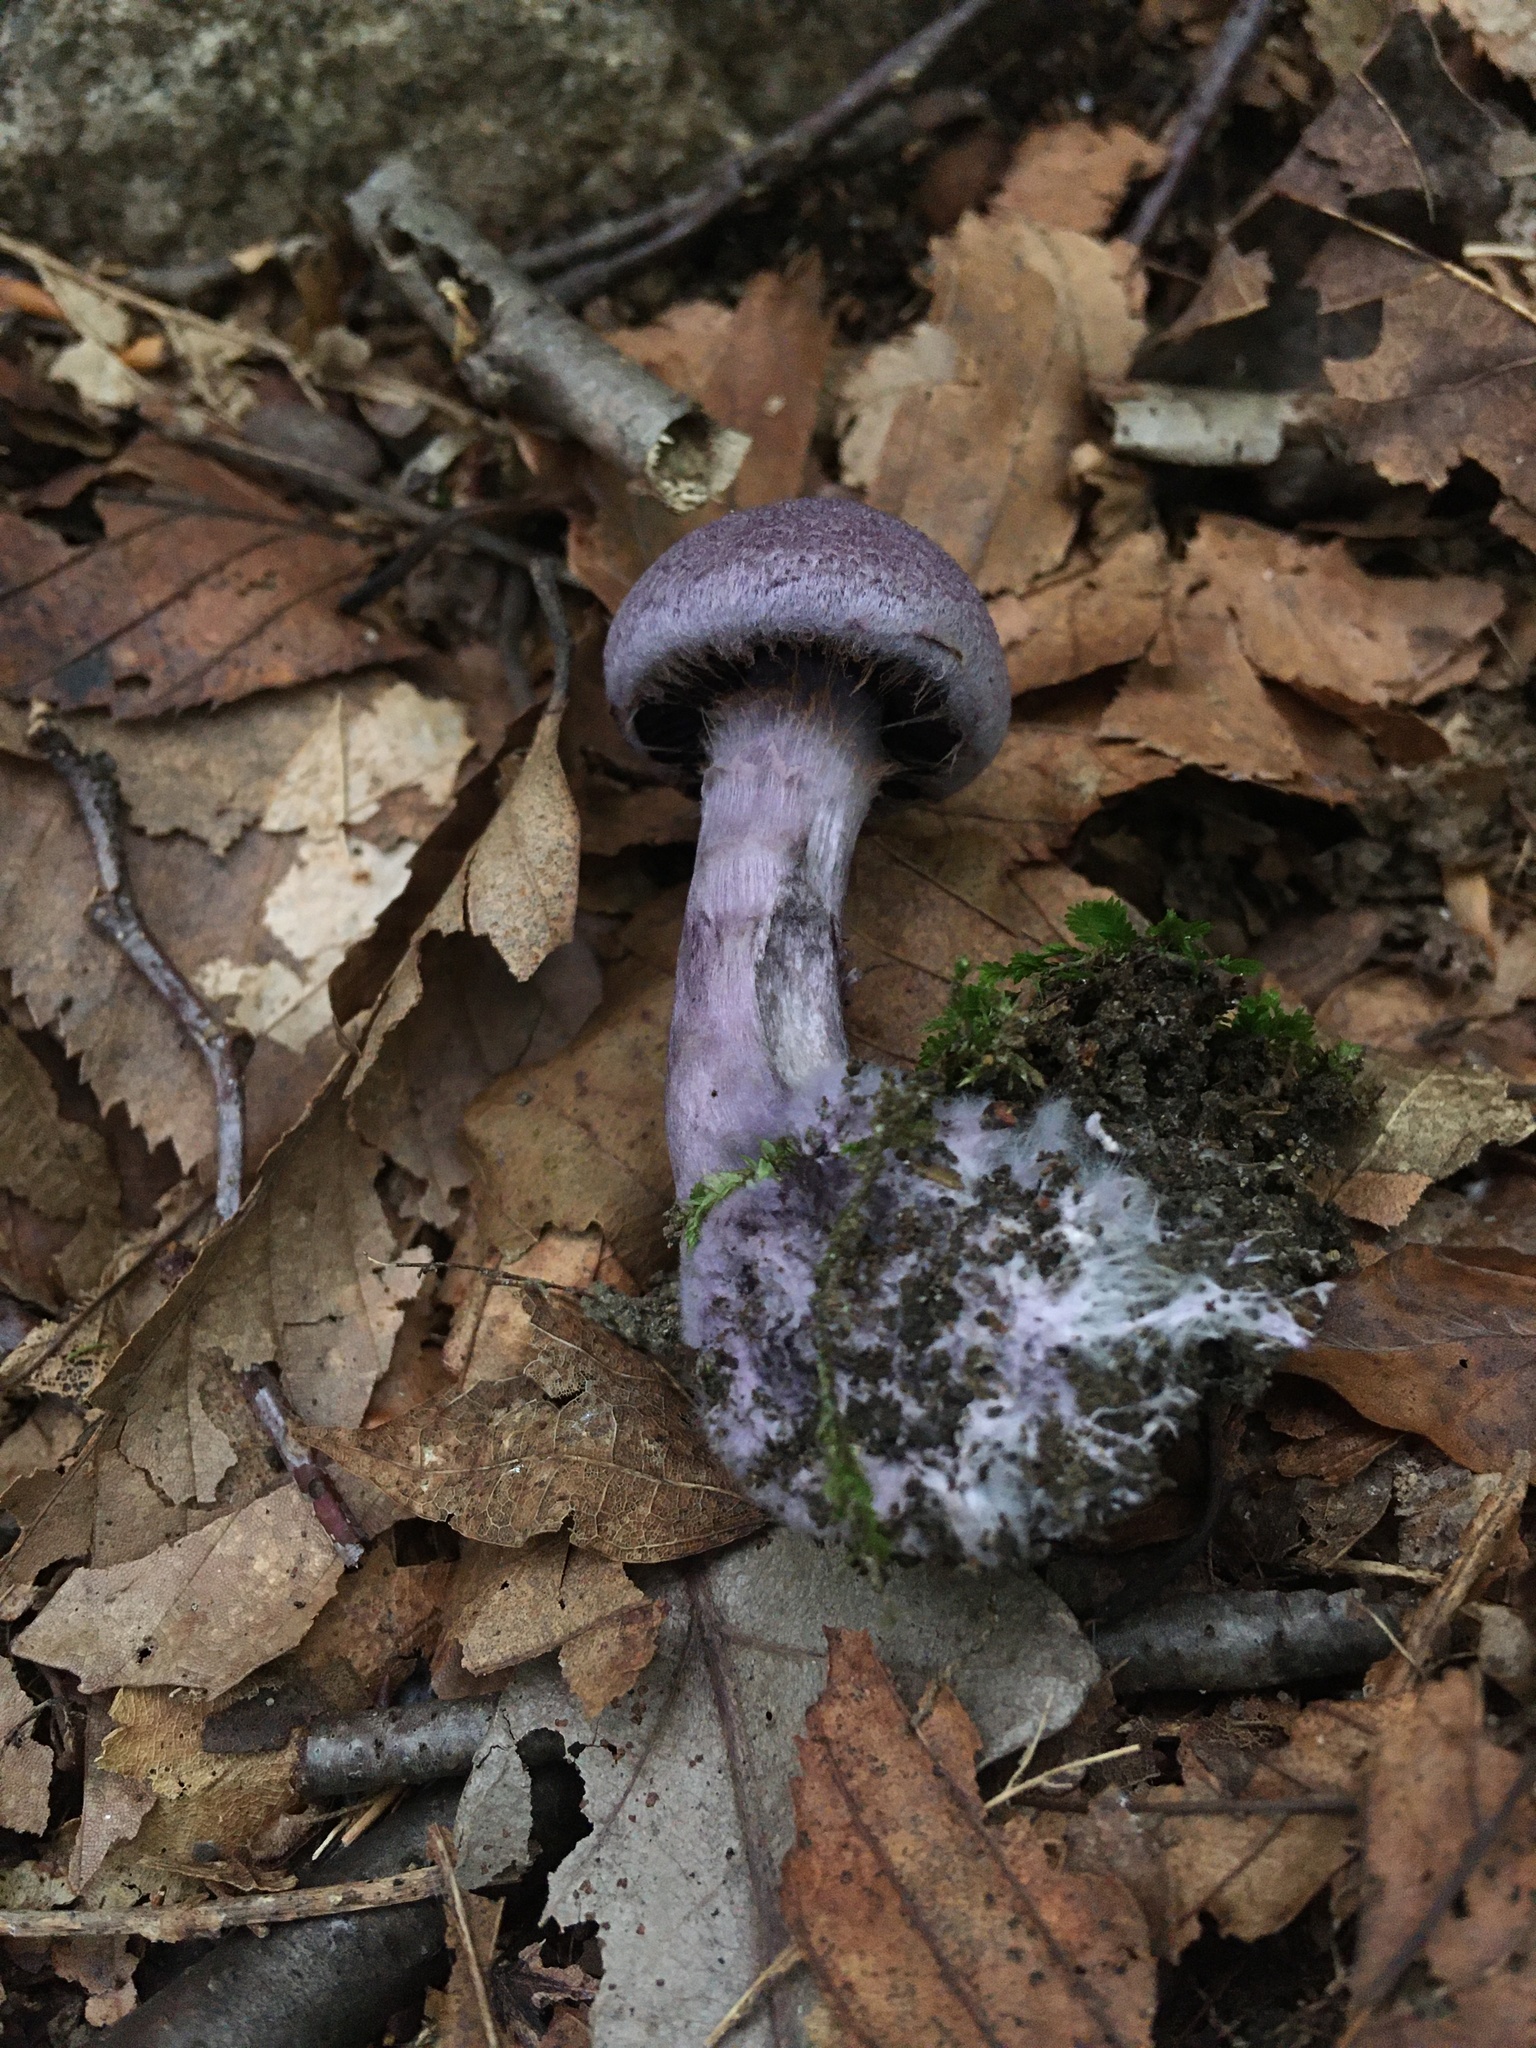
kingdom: Fungi
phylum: Basidiomycota
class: Agaricomycetes
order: Agaricales
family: Cortinariaceae
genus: Cortinarius
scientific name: Cortinarius violaceus
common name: Violet webcap
